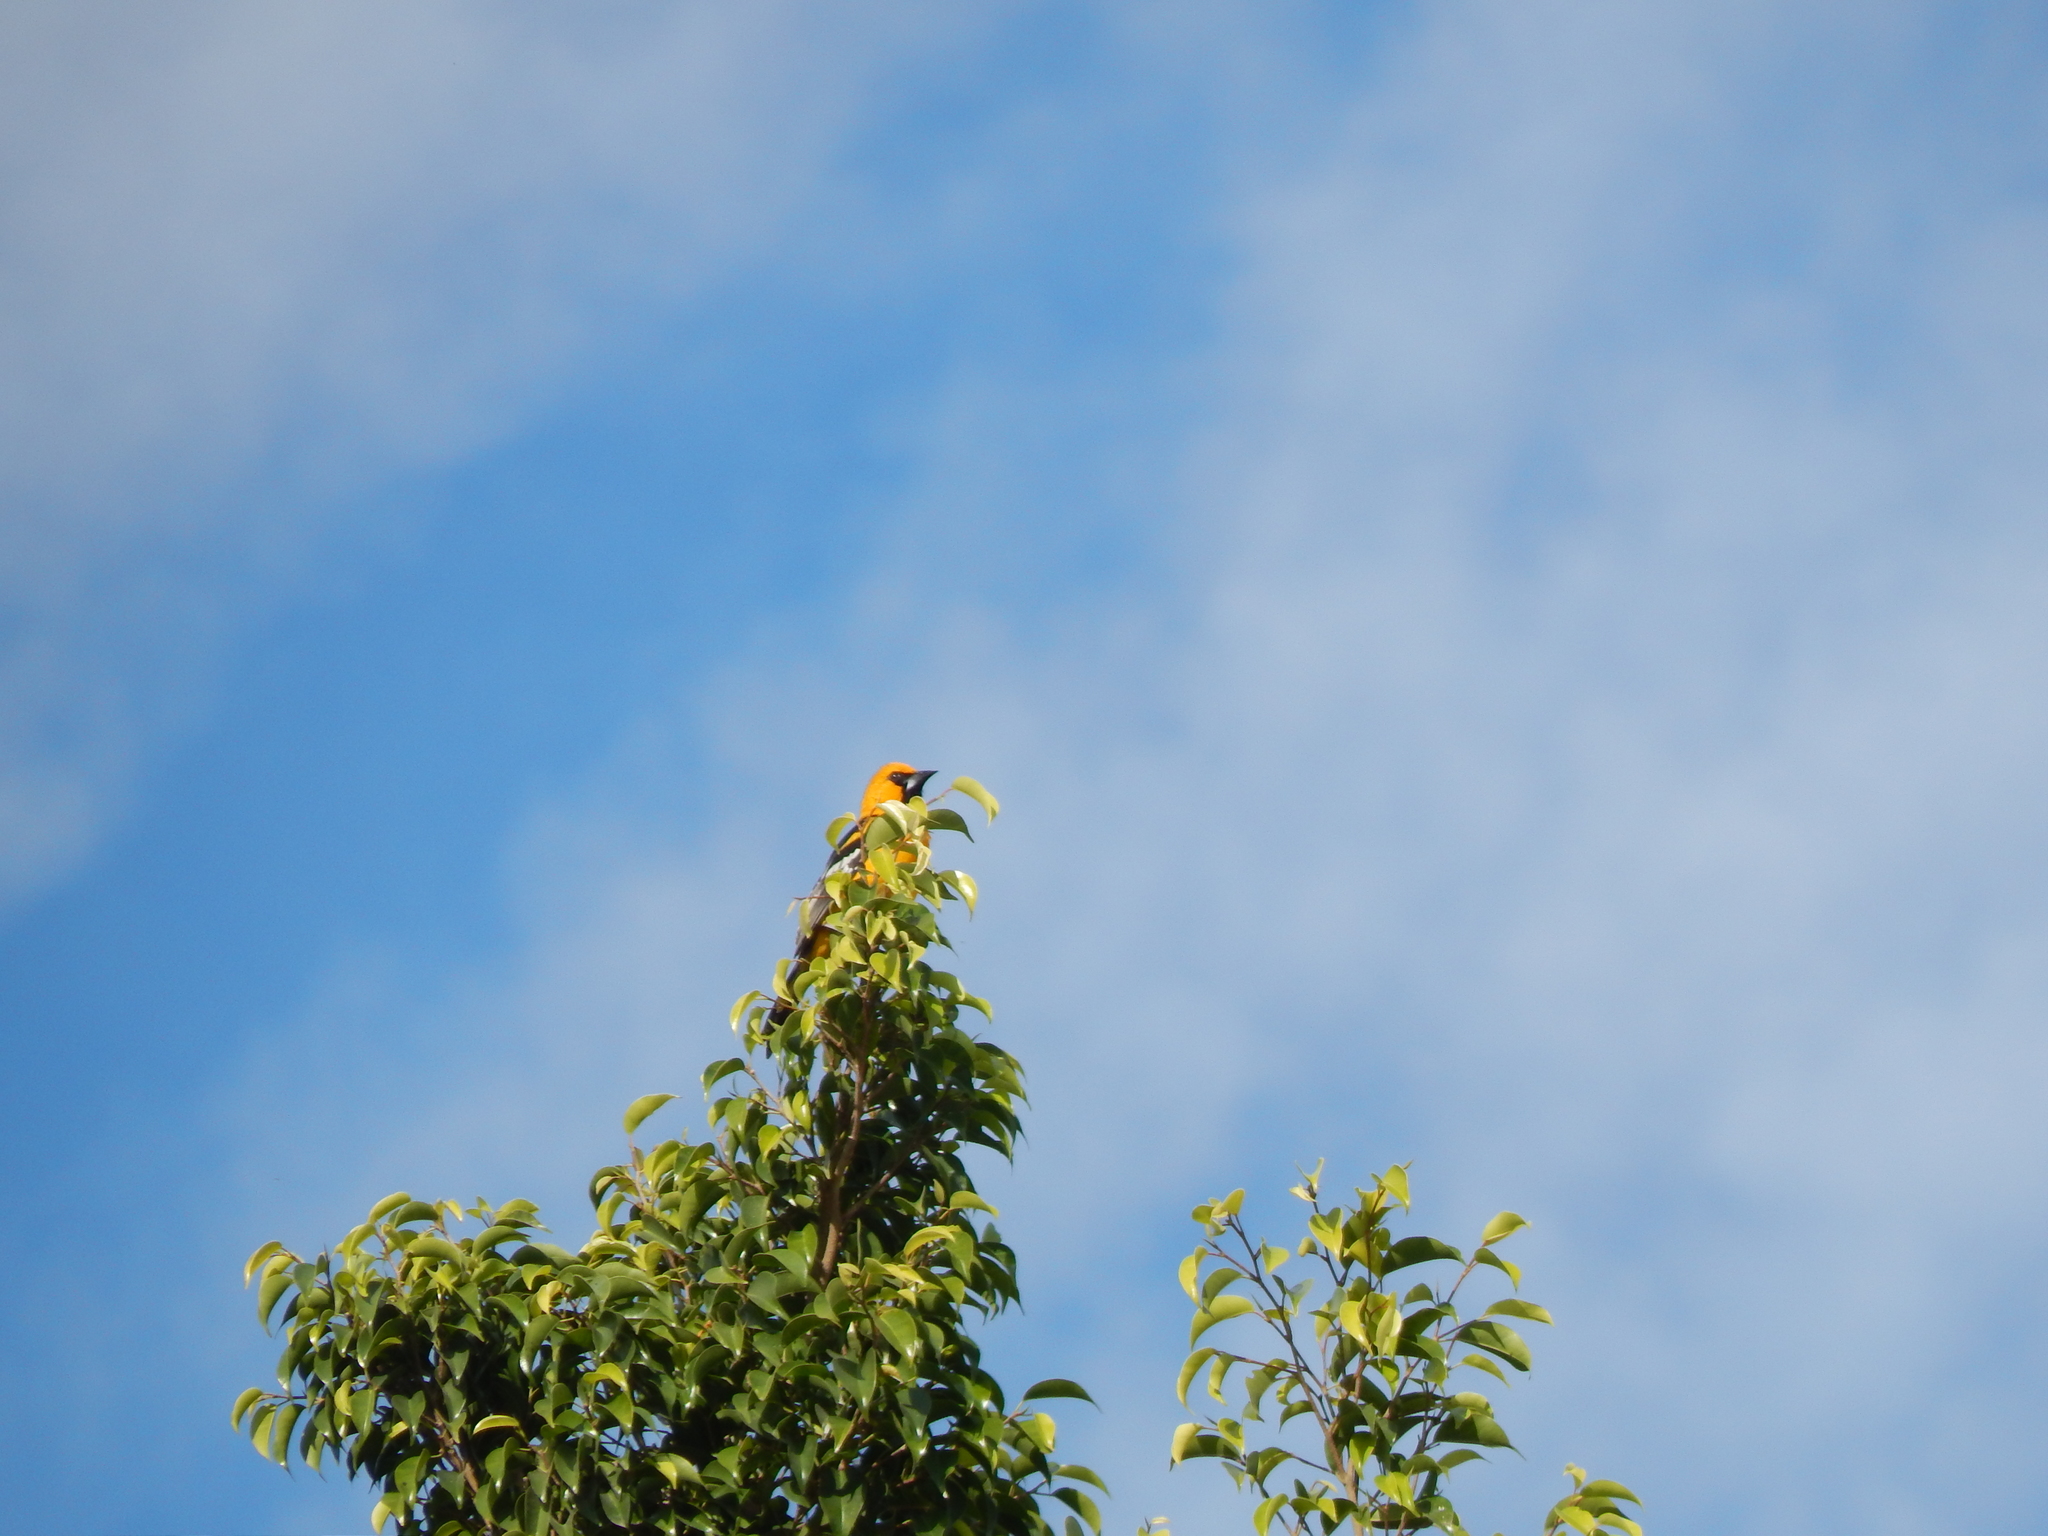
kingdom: Animalia
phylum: Chordata
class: Aves
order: Passeriformes
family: Icteridae
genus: Icterus
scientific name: Icterus gularis
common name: Altamira oriole
